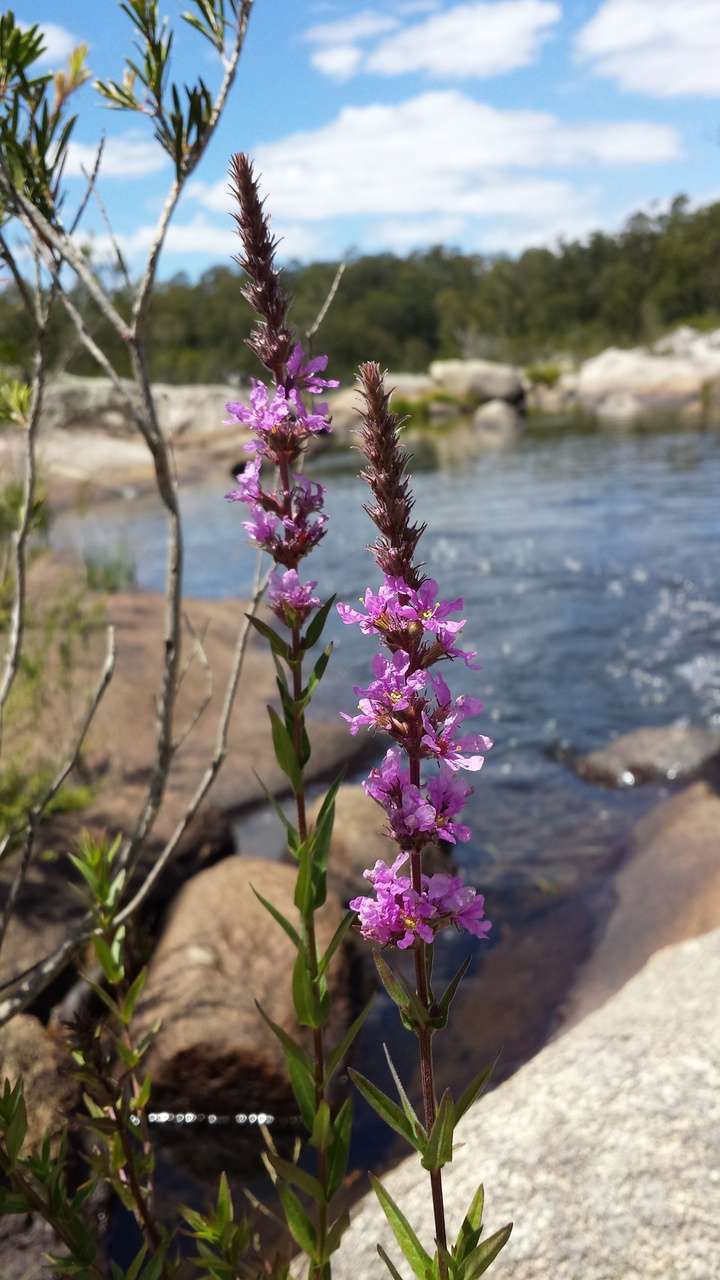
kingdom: Plantae
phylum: Tracheophyta
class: Magnoliopsida
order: Myrtales
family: Lythraceae
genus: Lythrum
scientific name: Lythrum salicaria
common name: Purple loosestrife
